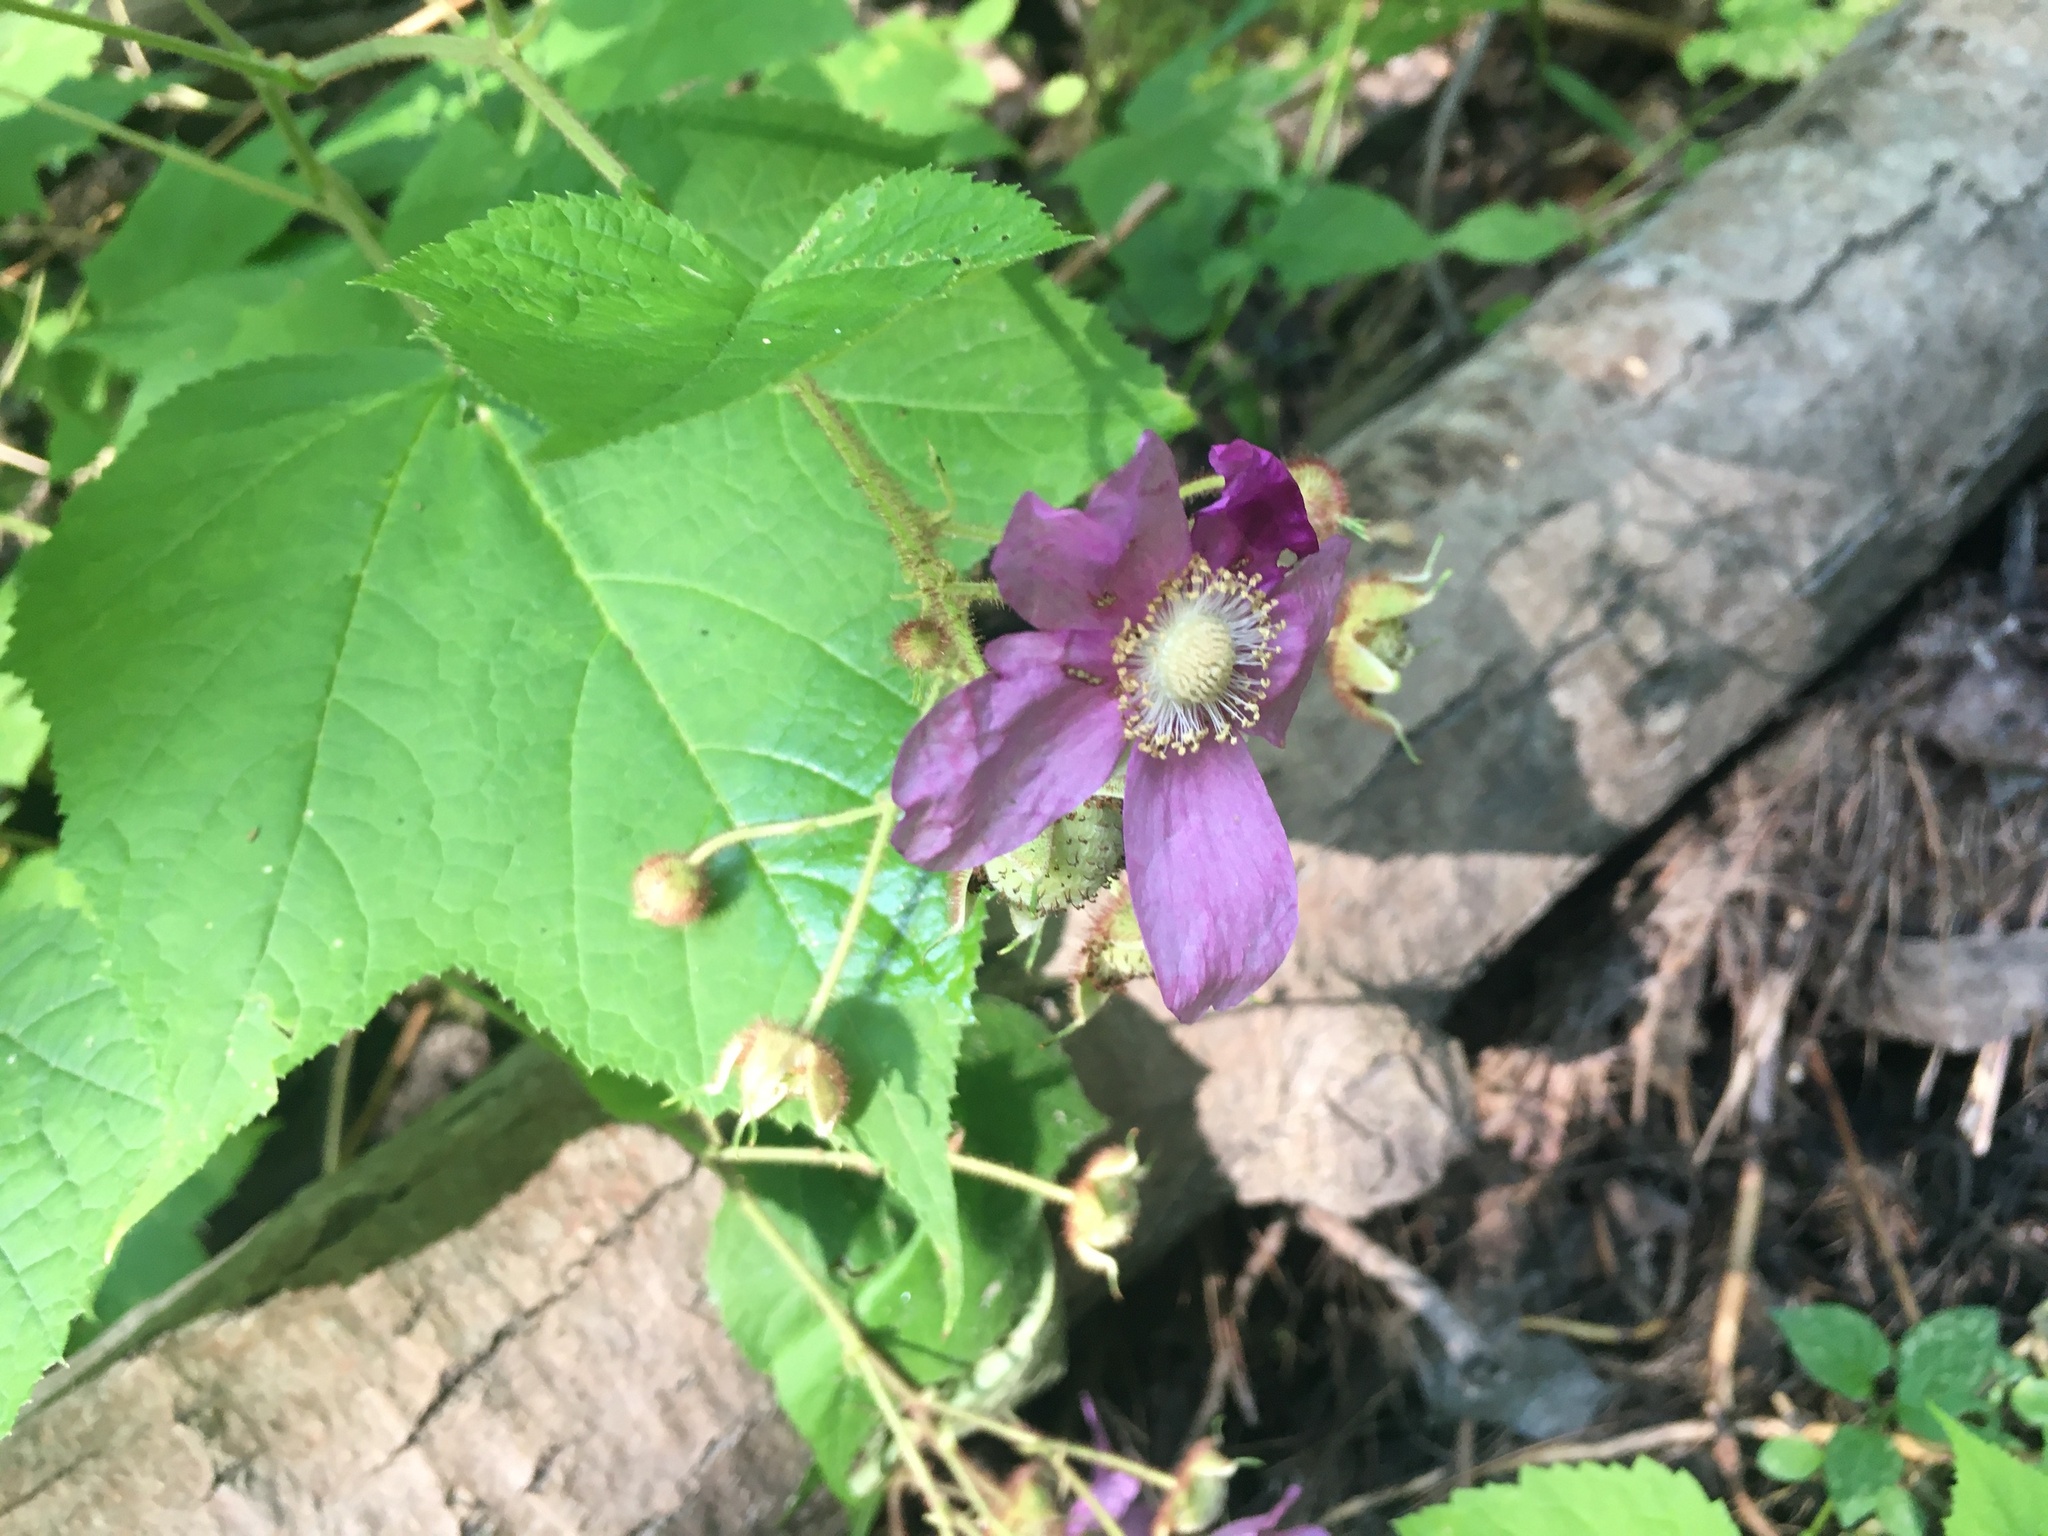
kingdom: Plantae
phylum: Tracheophyta
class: Magnoliopsida
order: Rosales
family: Rosaceae
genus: Rubus
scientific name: Rubus odoratus
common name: Purple-flowered raspberry
